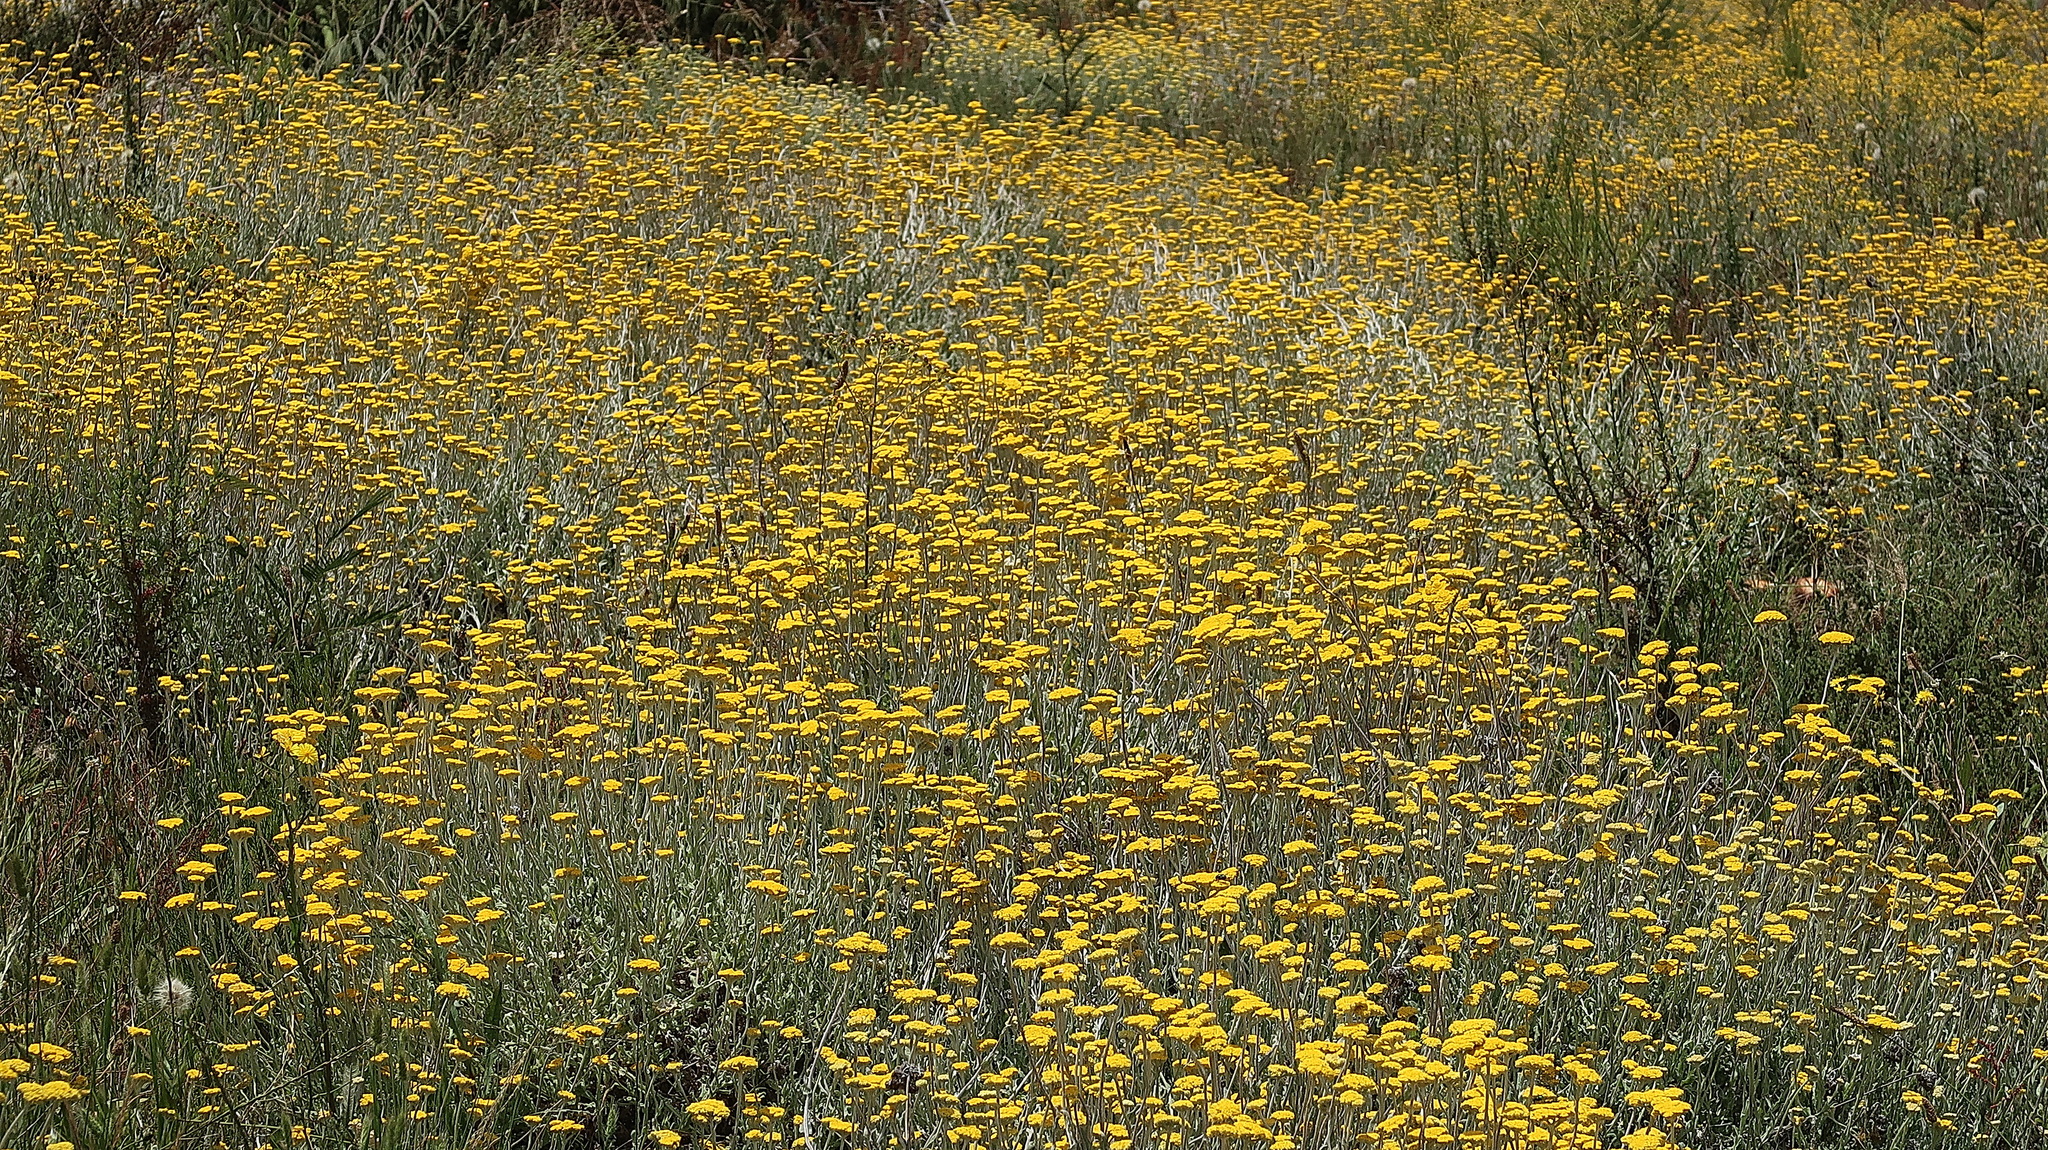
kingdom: Plantae
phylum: Tracheophyta
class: Magnoliopsida
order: Asterales
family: Asteraceae
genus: Helichrysum
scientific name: Helichrysum cymosum
